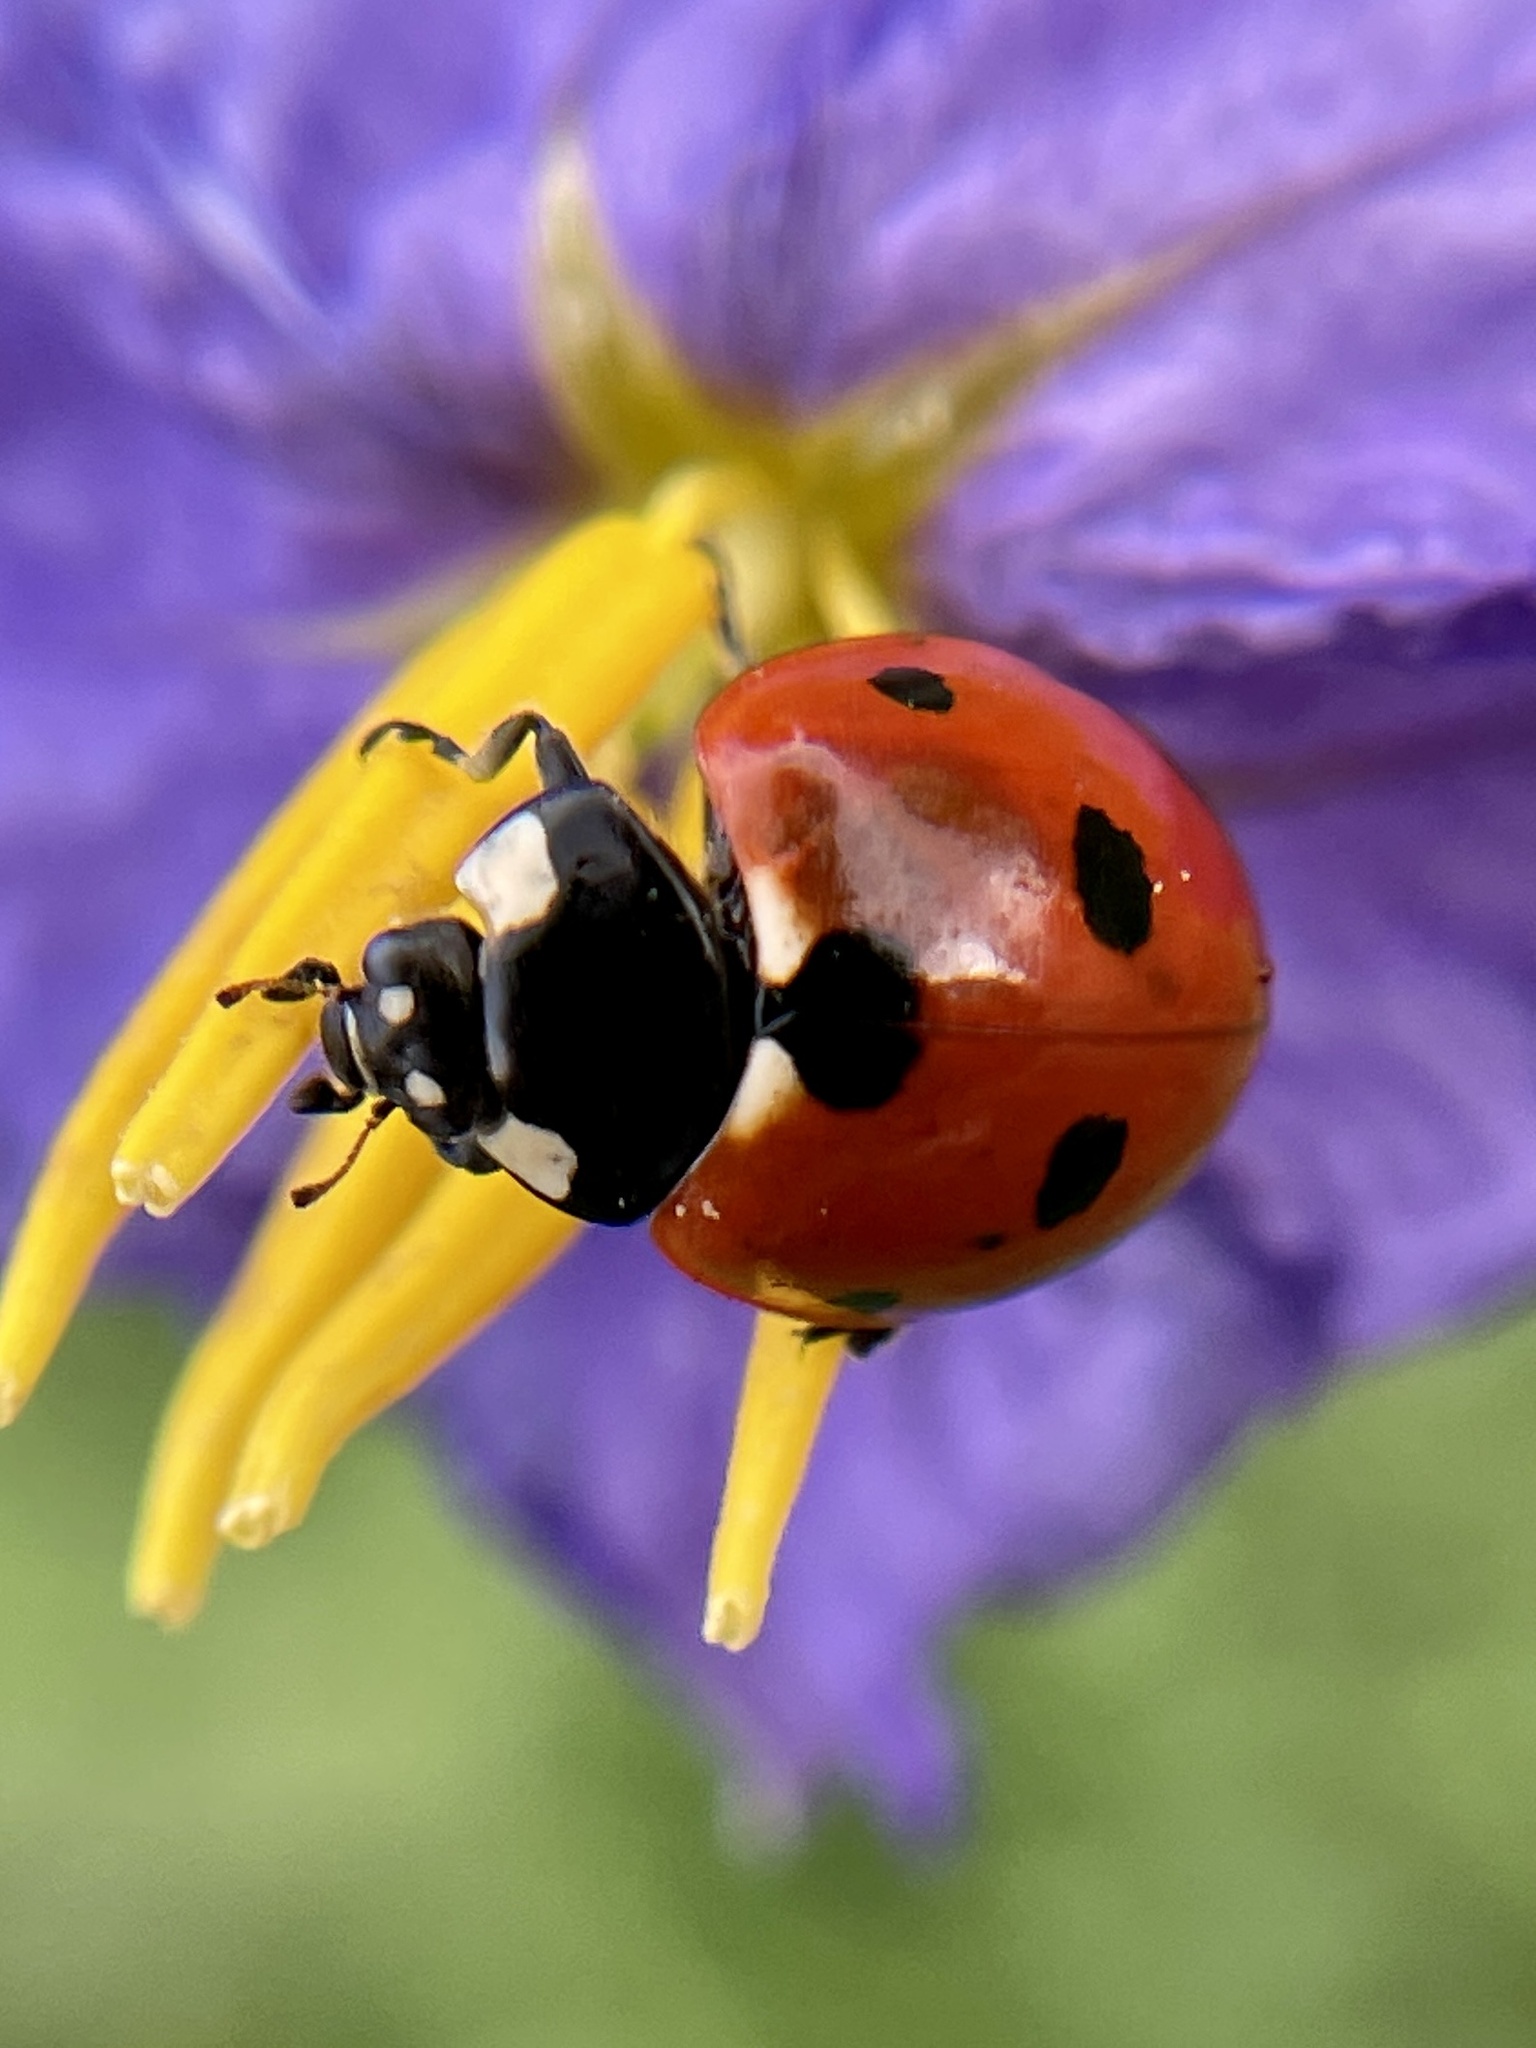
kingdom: Animalia
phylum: Arthropoda
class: Insecta
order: Coleoptera
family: Coccinellidae
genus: Coccinella
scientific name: Coccinella septempunctata
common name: Sevenspotted lady beetle
